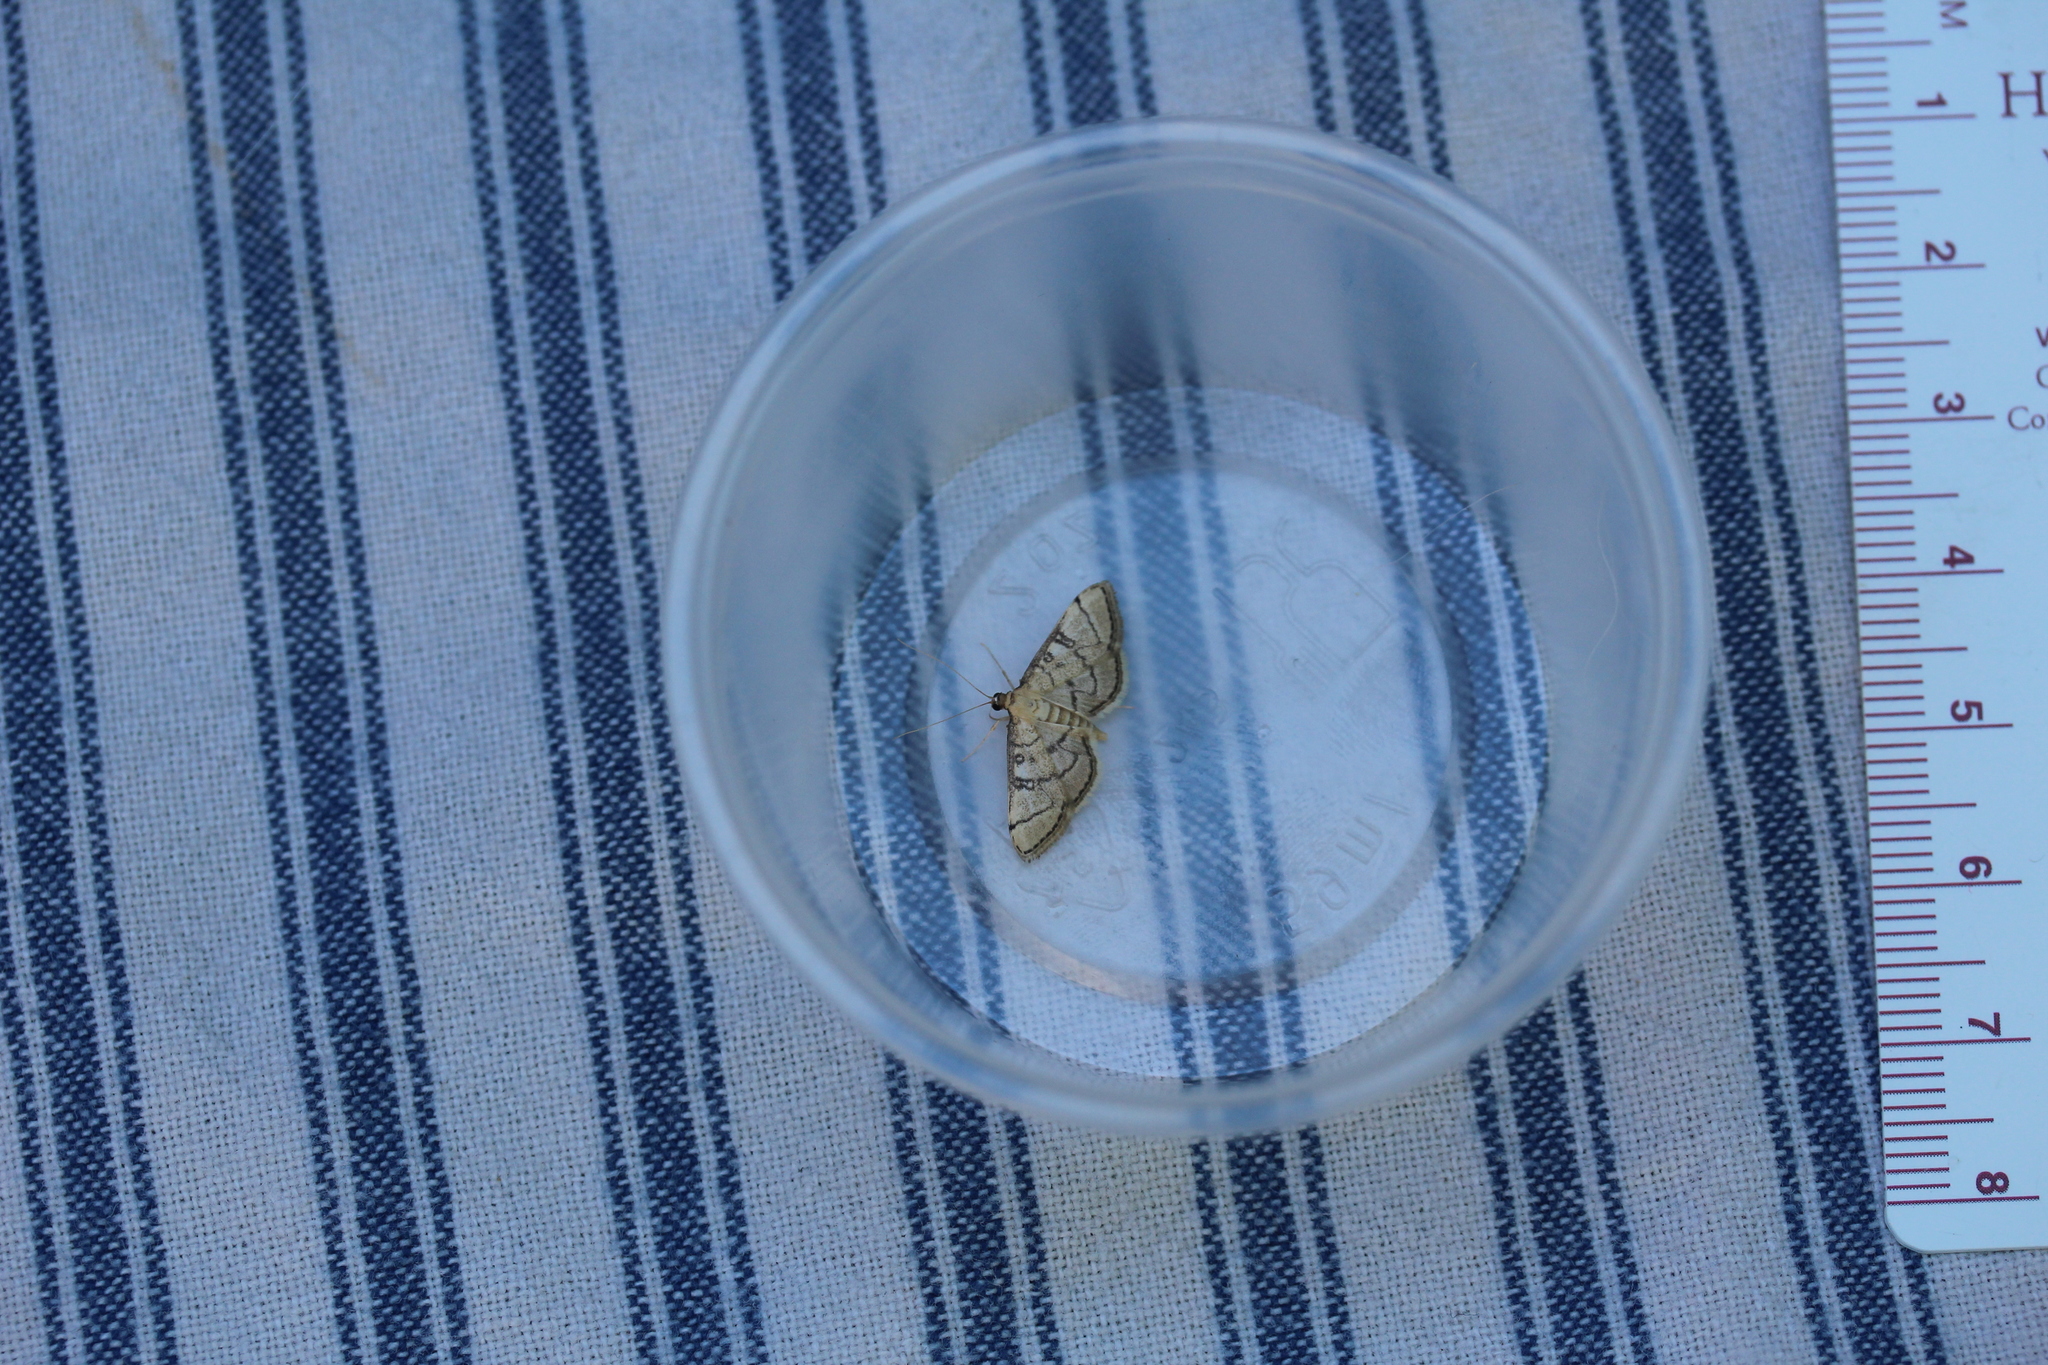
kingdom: Animalia
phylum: Arthropoda
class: Insecta
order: Lepidoptera
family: Crambidae
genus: Lamprosema
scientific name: Lamprosema Blepharomastix ranalis
